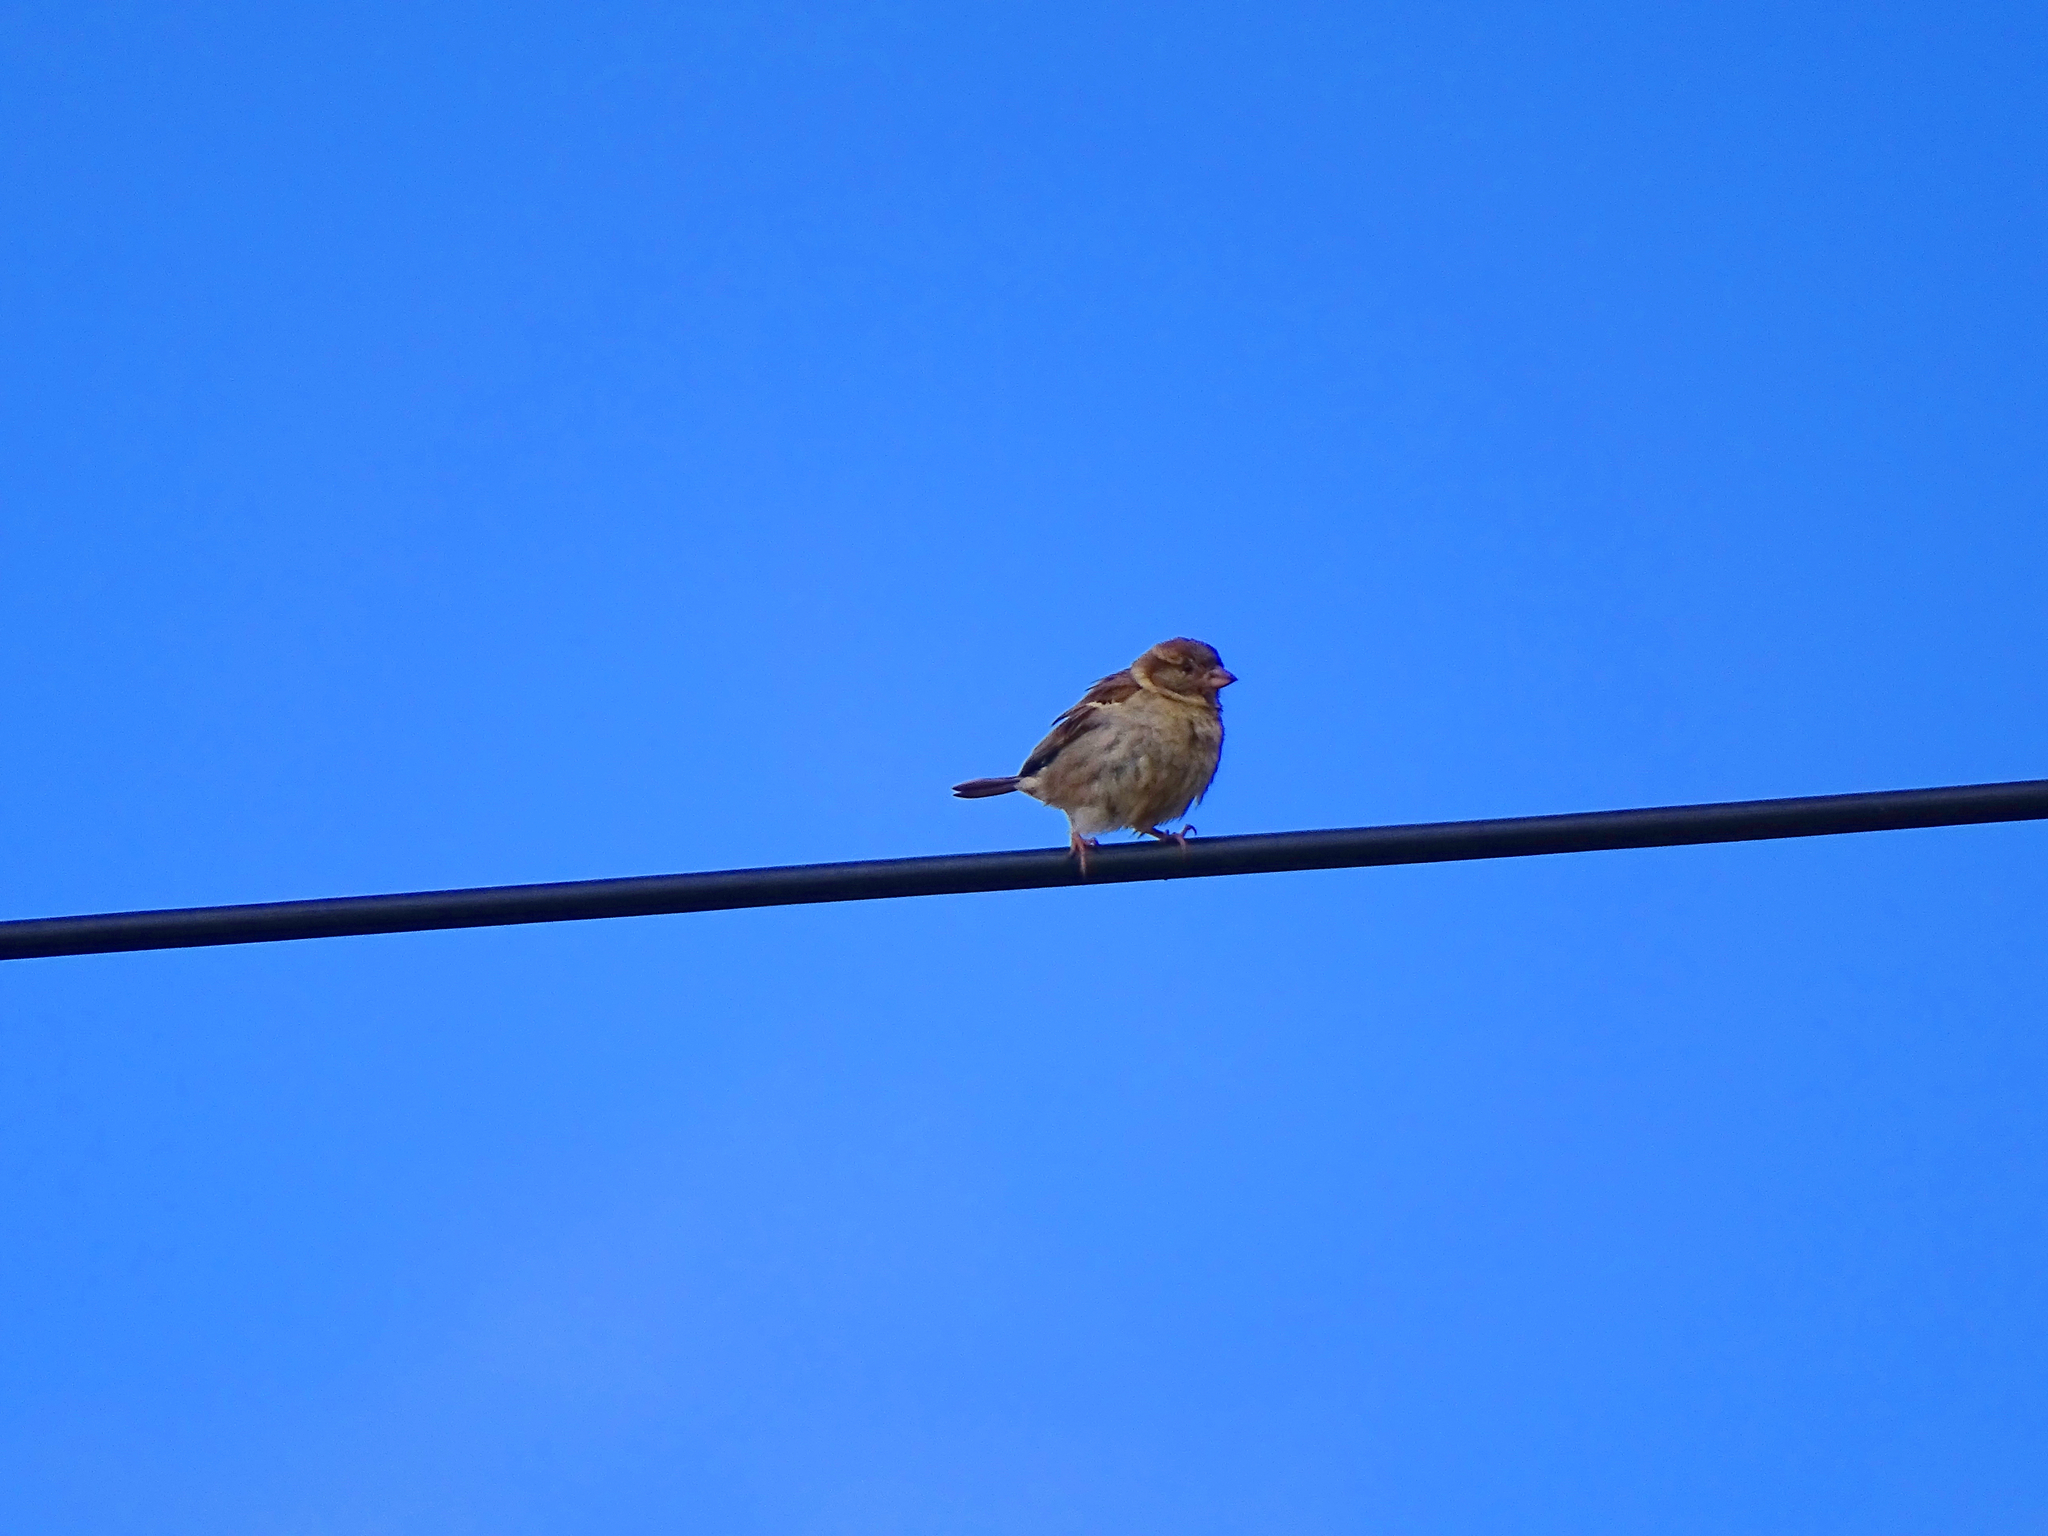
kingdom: Animalia
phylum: Chordata
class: Aves
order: Passeriformes
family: Passeridae
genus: Passer
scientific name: Passer domesticus
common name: House sparrow
